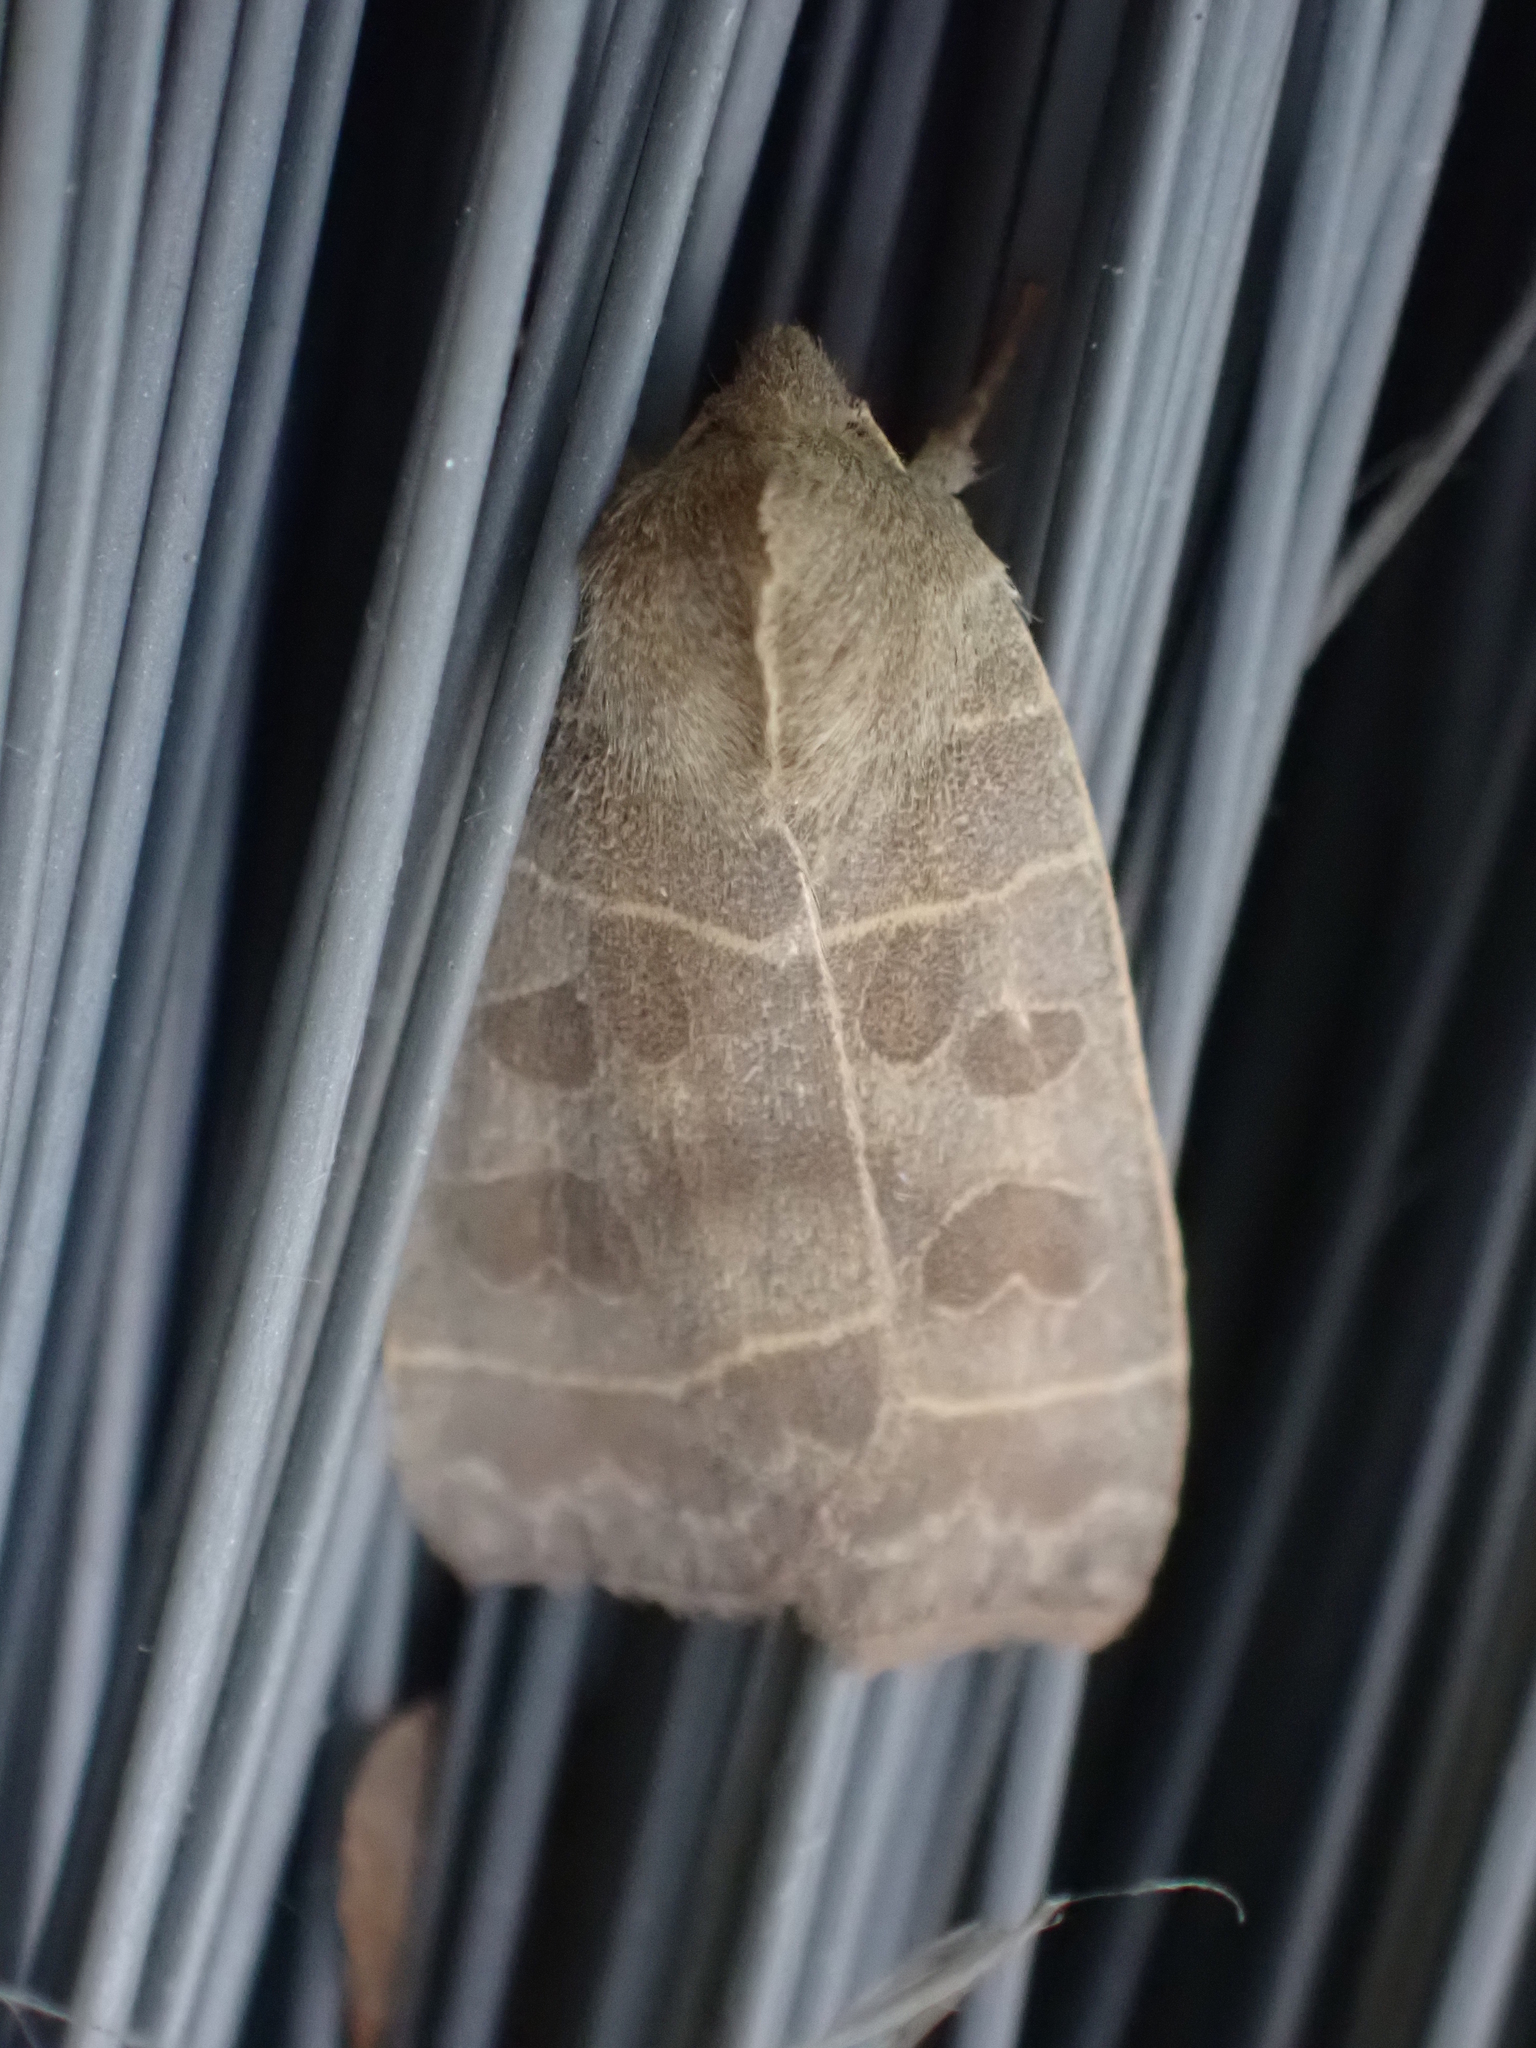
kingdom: Animalia
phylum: Arthropoda
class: Insecta
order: Lepidoptera
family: Noctuidae
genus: Ipimorpha
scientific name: Ipimorpha pleonectusa
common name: Even-lined sallow
